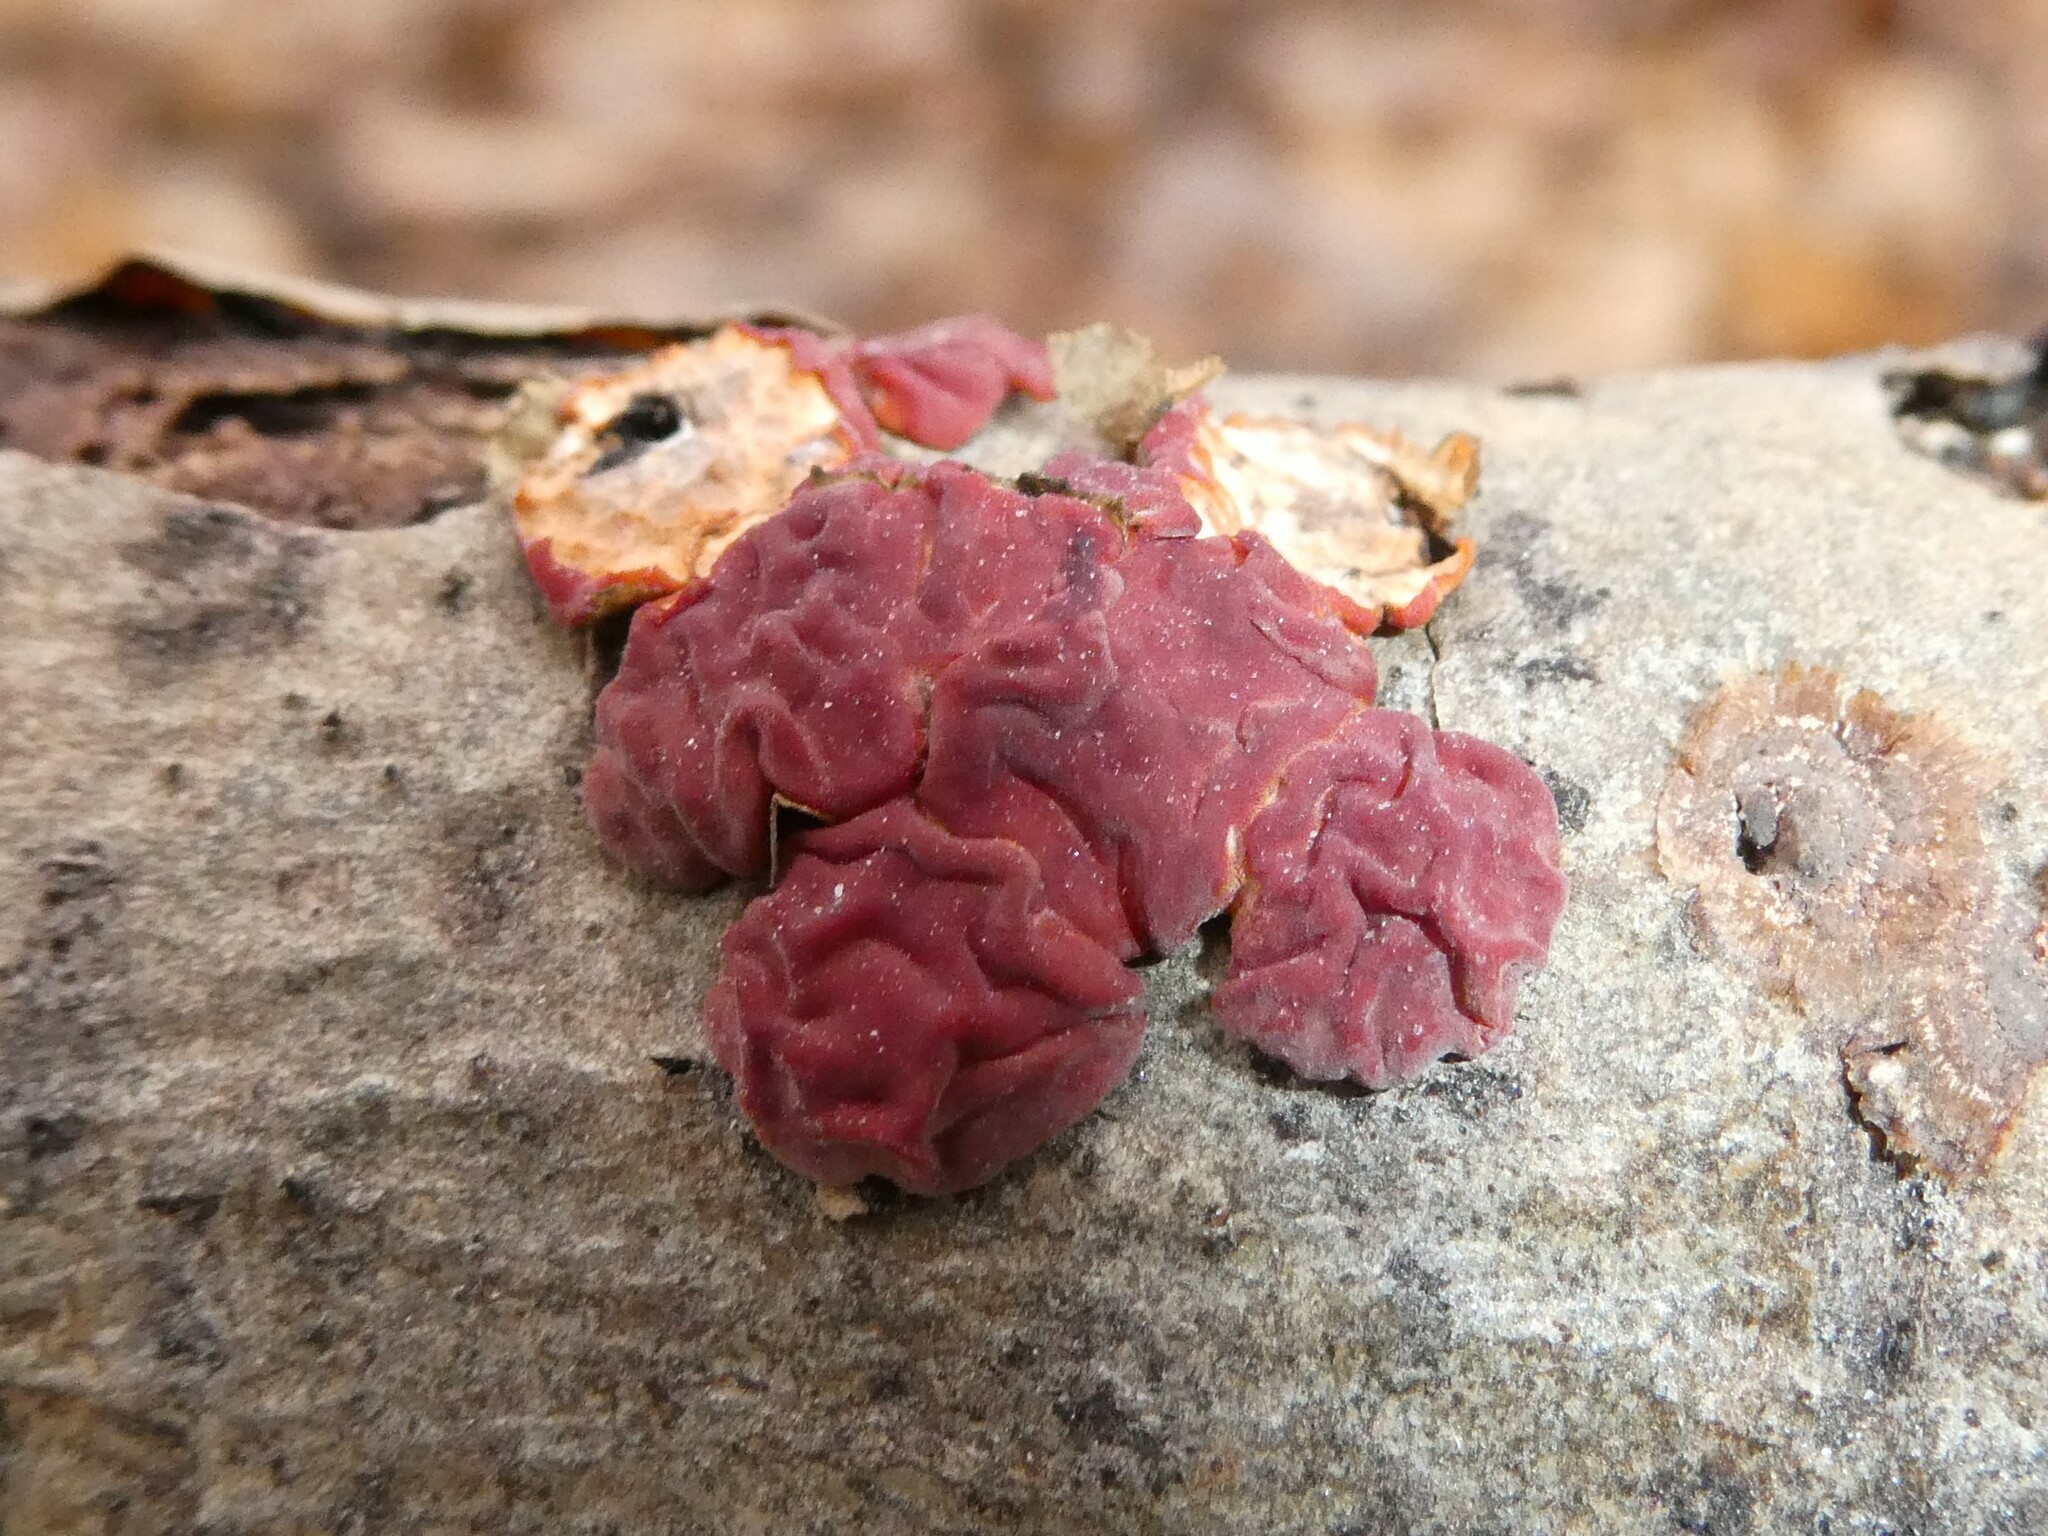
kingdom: Fungi
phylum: Basidiomycota
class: Agaricomycetes
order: Russulales
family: Peniophoraceae
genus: Peniophora
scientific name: Peniophora rufa
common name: Red tree brain fungus
